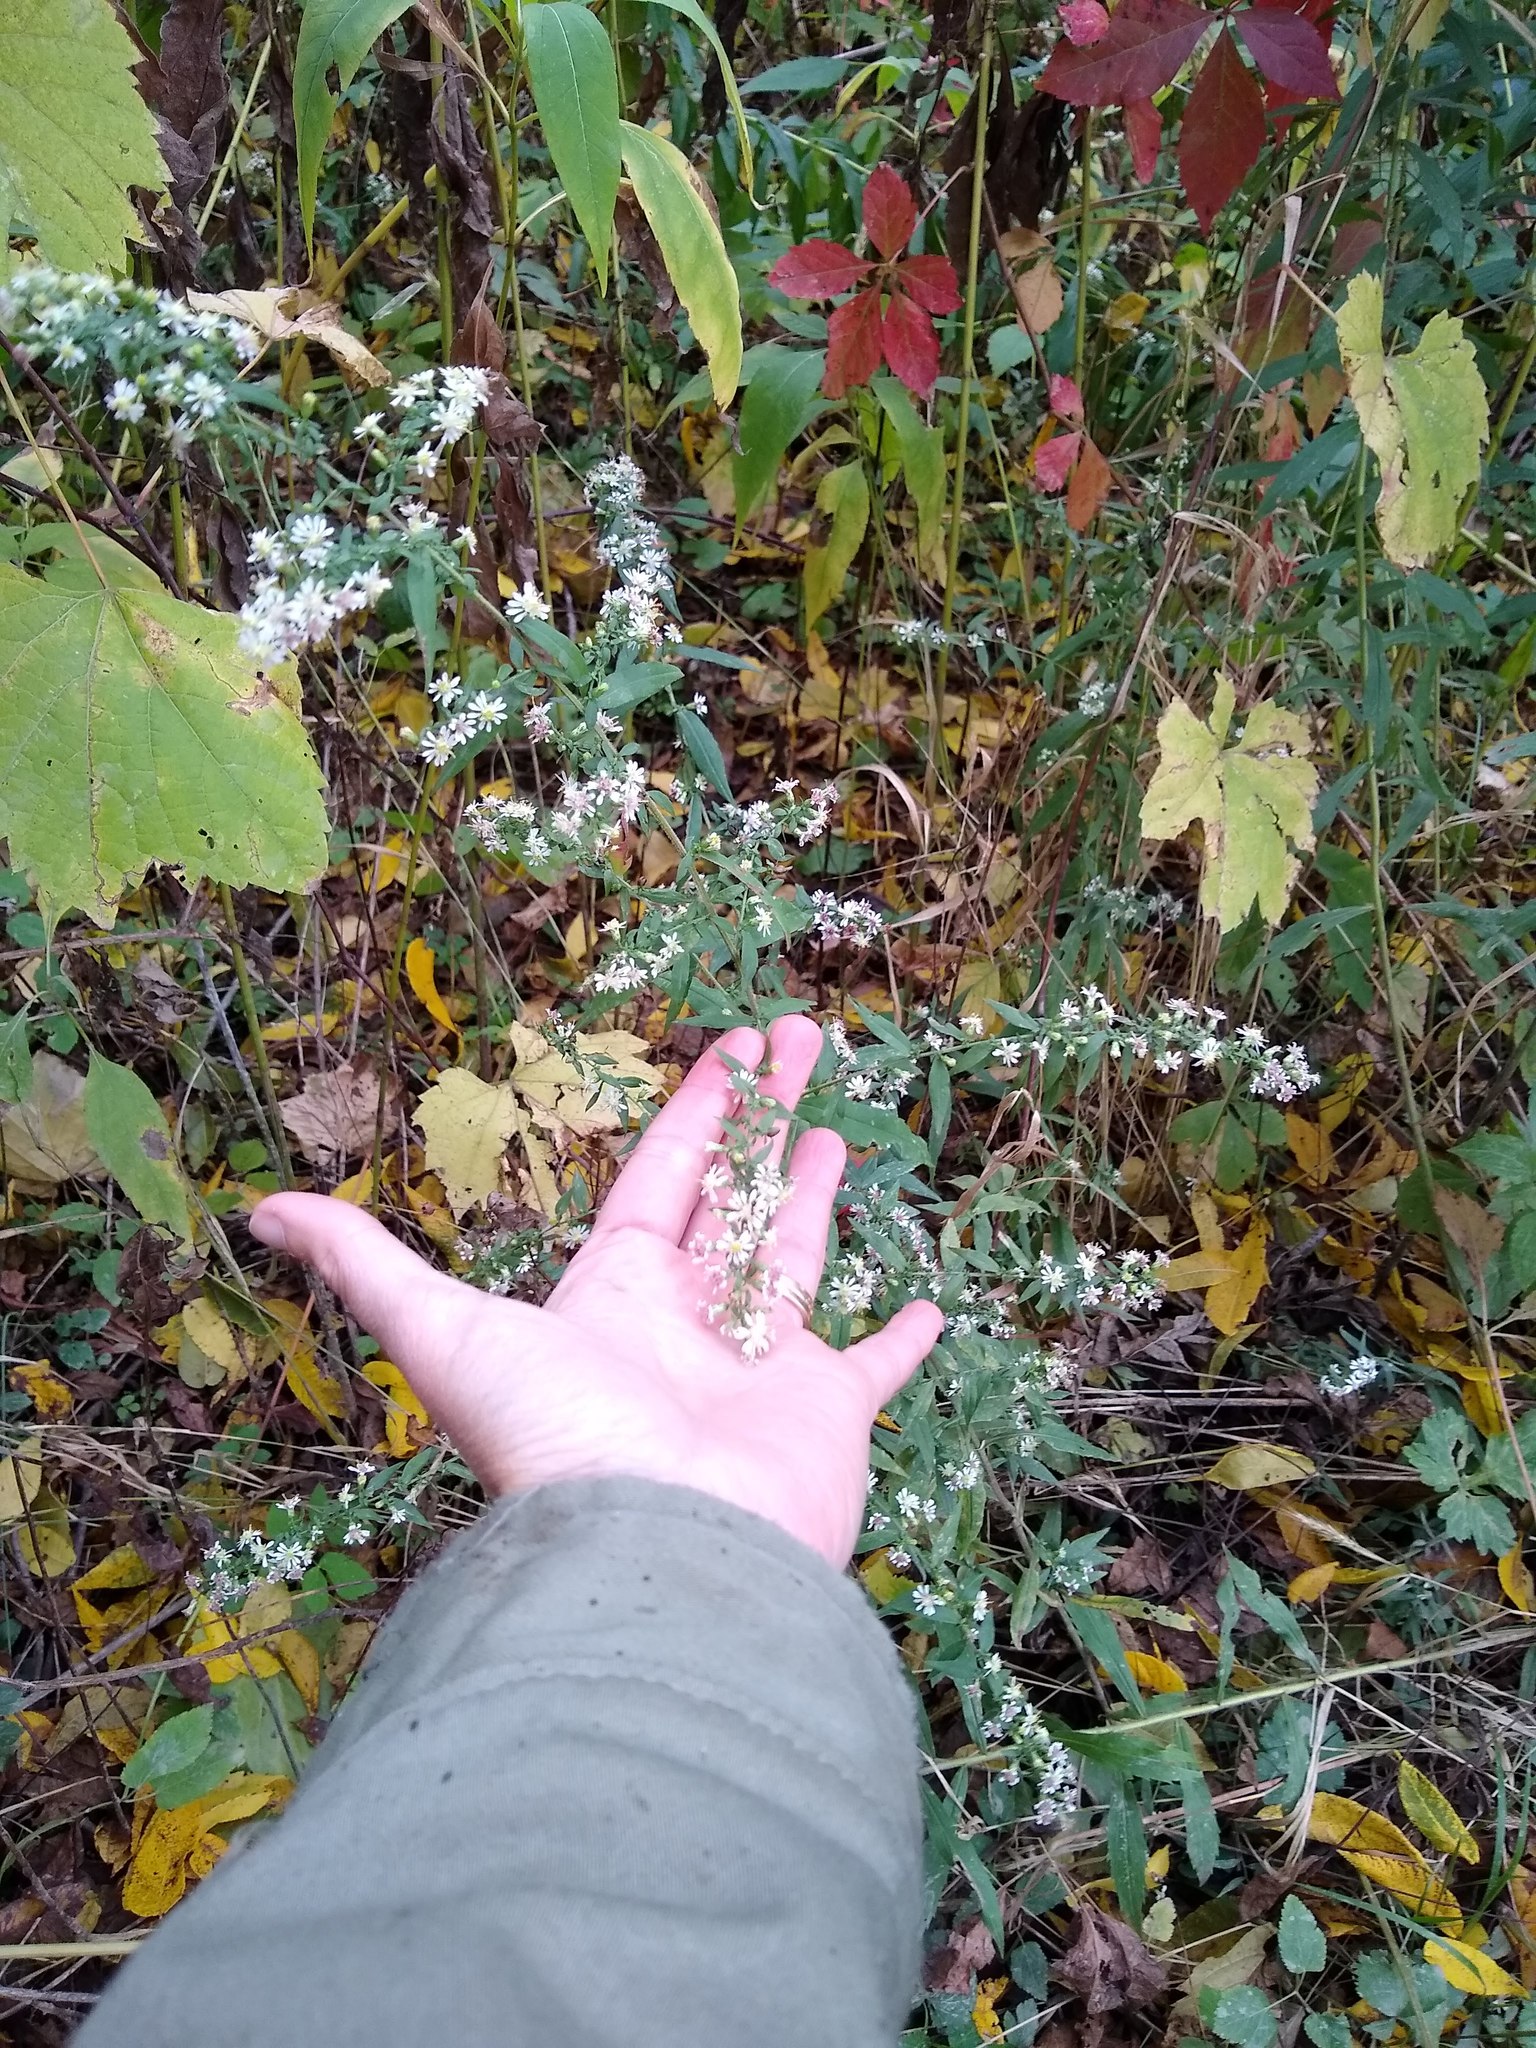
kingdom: Plantae
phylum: Tracheophyta
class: Magnoliopsida
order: Asterales
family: Asteraceae
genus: Symphyotrichum
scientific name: Symphyotrichum lateriflorum
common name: Calico aster
